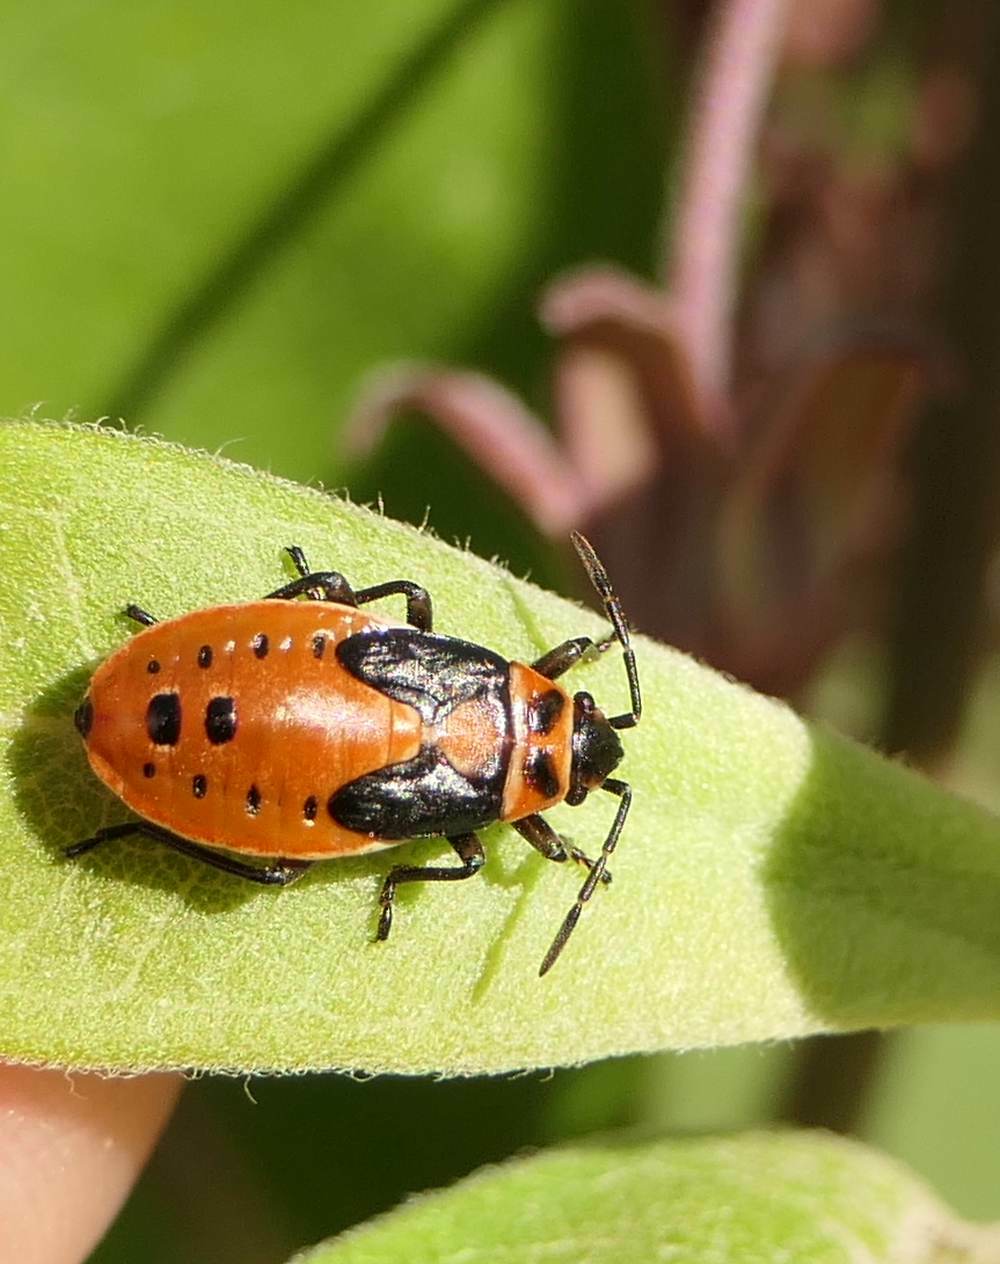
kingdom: Animalia
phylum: Arthropoda
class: Insecta
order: Hemiptera
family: Lygaeidae
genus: Lygaeus
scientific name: Lygaeus kalmii
